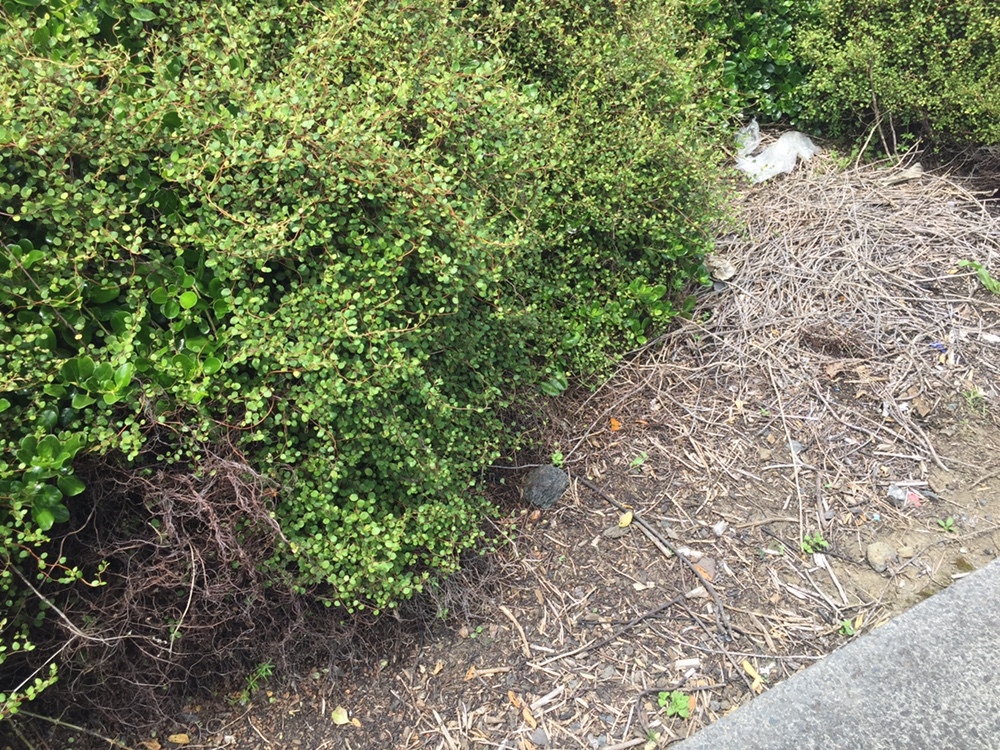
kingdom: Animalia
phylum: Arthropoda
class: Insecta
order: Lepidoptera
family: Lycaenidae
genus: Lycaena
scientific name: Lycaena salustius
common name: North island coastal copper
